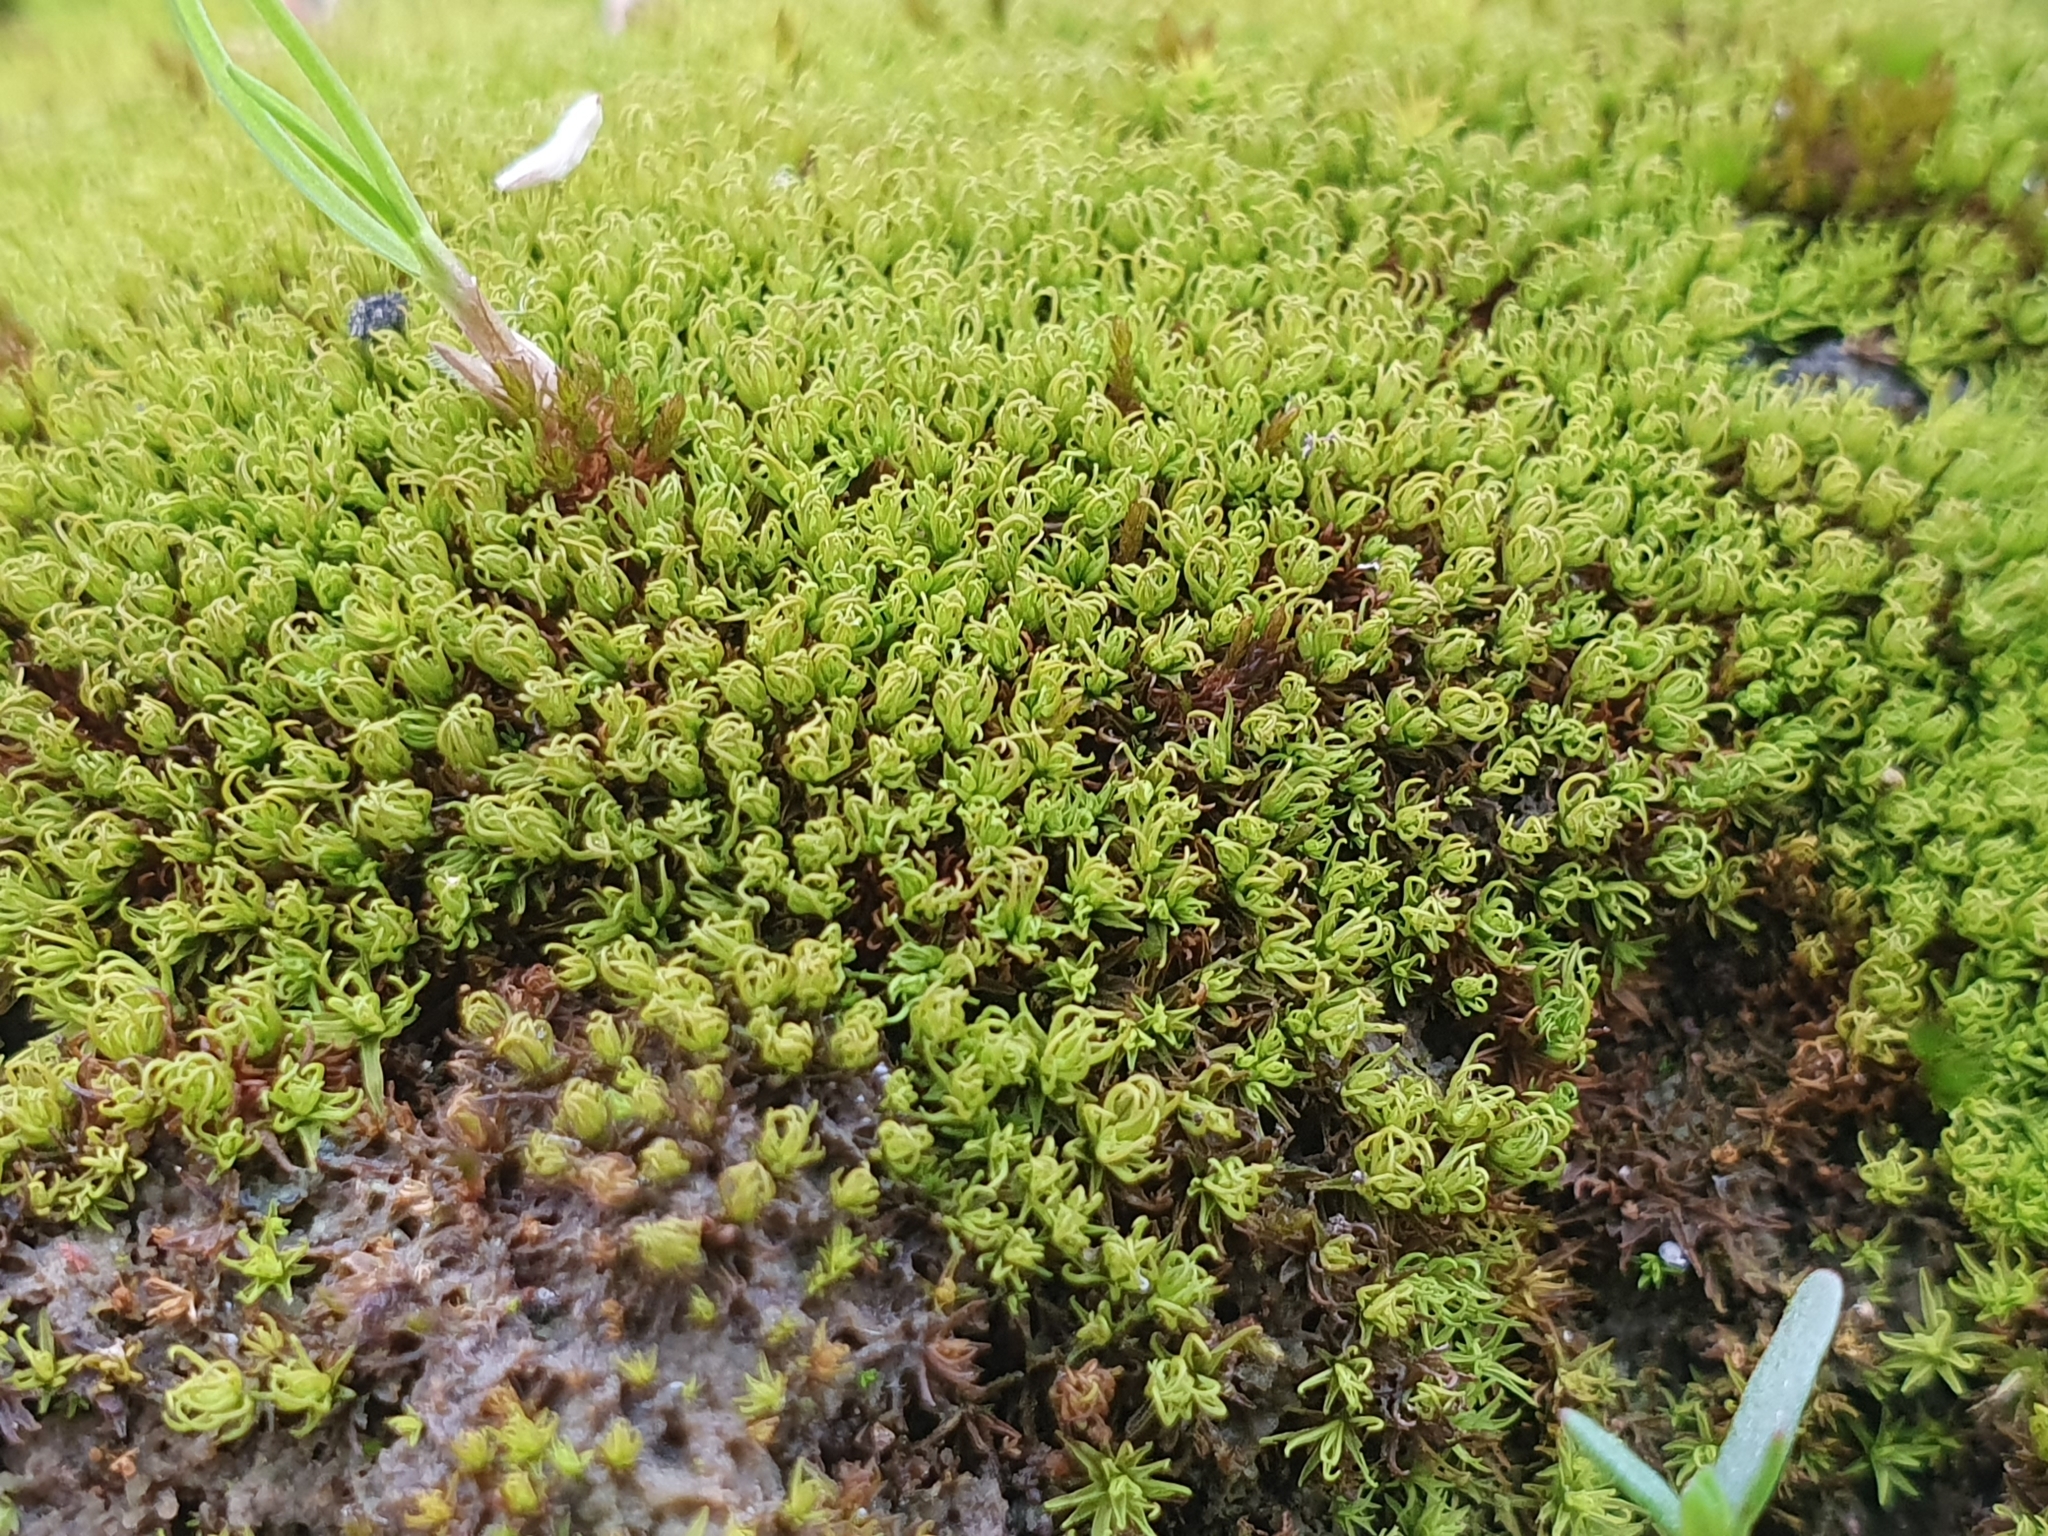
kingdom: Plantae
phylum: Bryophyta
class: Bryopsida
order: Pottiales
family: Pottiaceae
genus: Trichostomum
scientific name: Trichostomum brachydontium
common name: Variable crisp-moss
